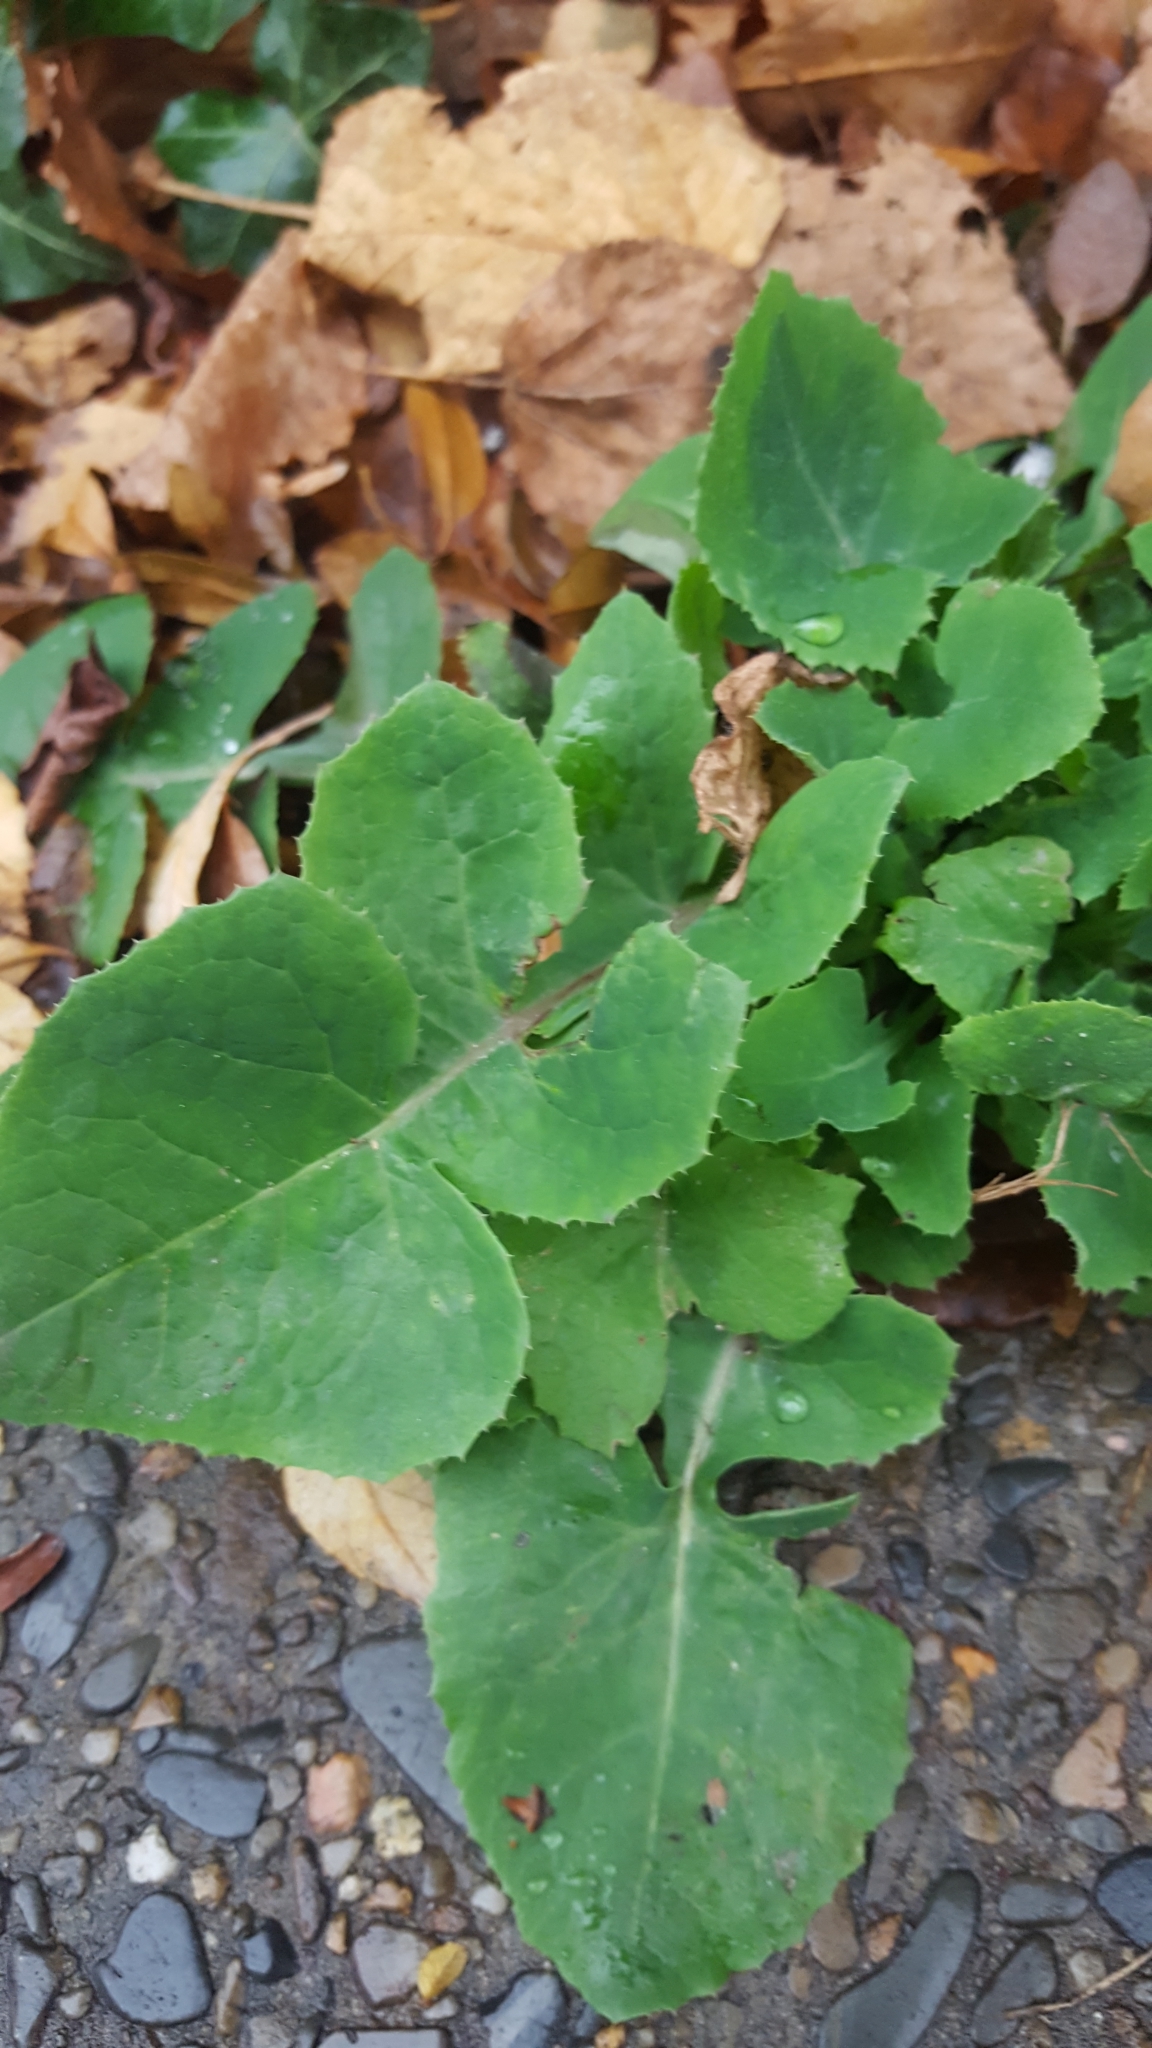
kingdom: Plantae
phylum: Tracheophyta
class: Magnoliopsida
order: Asterales
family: Asteraceae
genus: Sonchus
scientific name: Sonchus oleraceus
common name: Common sowthistle
